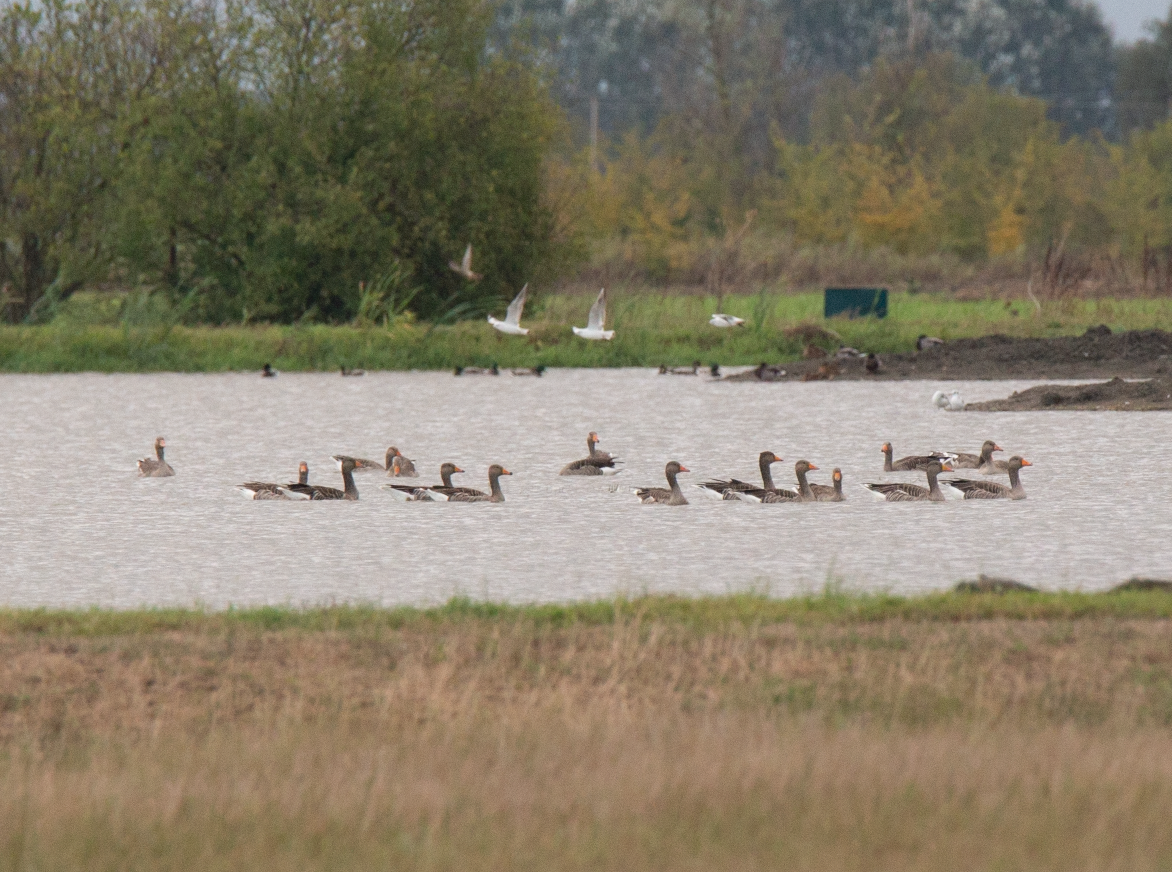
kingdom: Animalia
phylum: Chordata
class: Aves
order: Anseriformes
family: Anatidae
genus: Anser
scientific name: Anser anser
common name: Greylag goose
